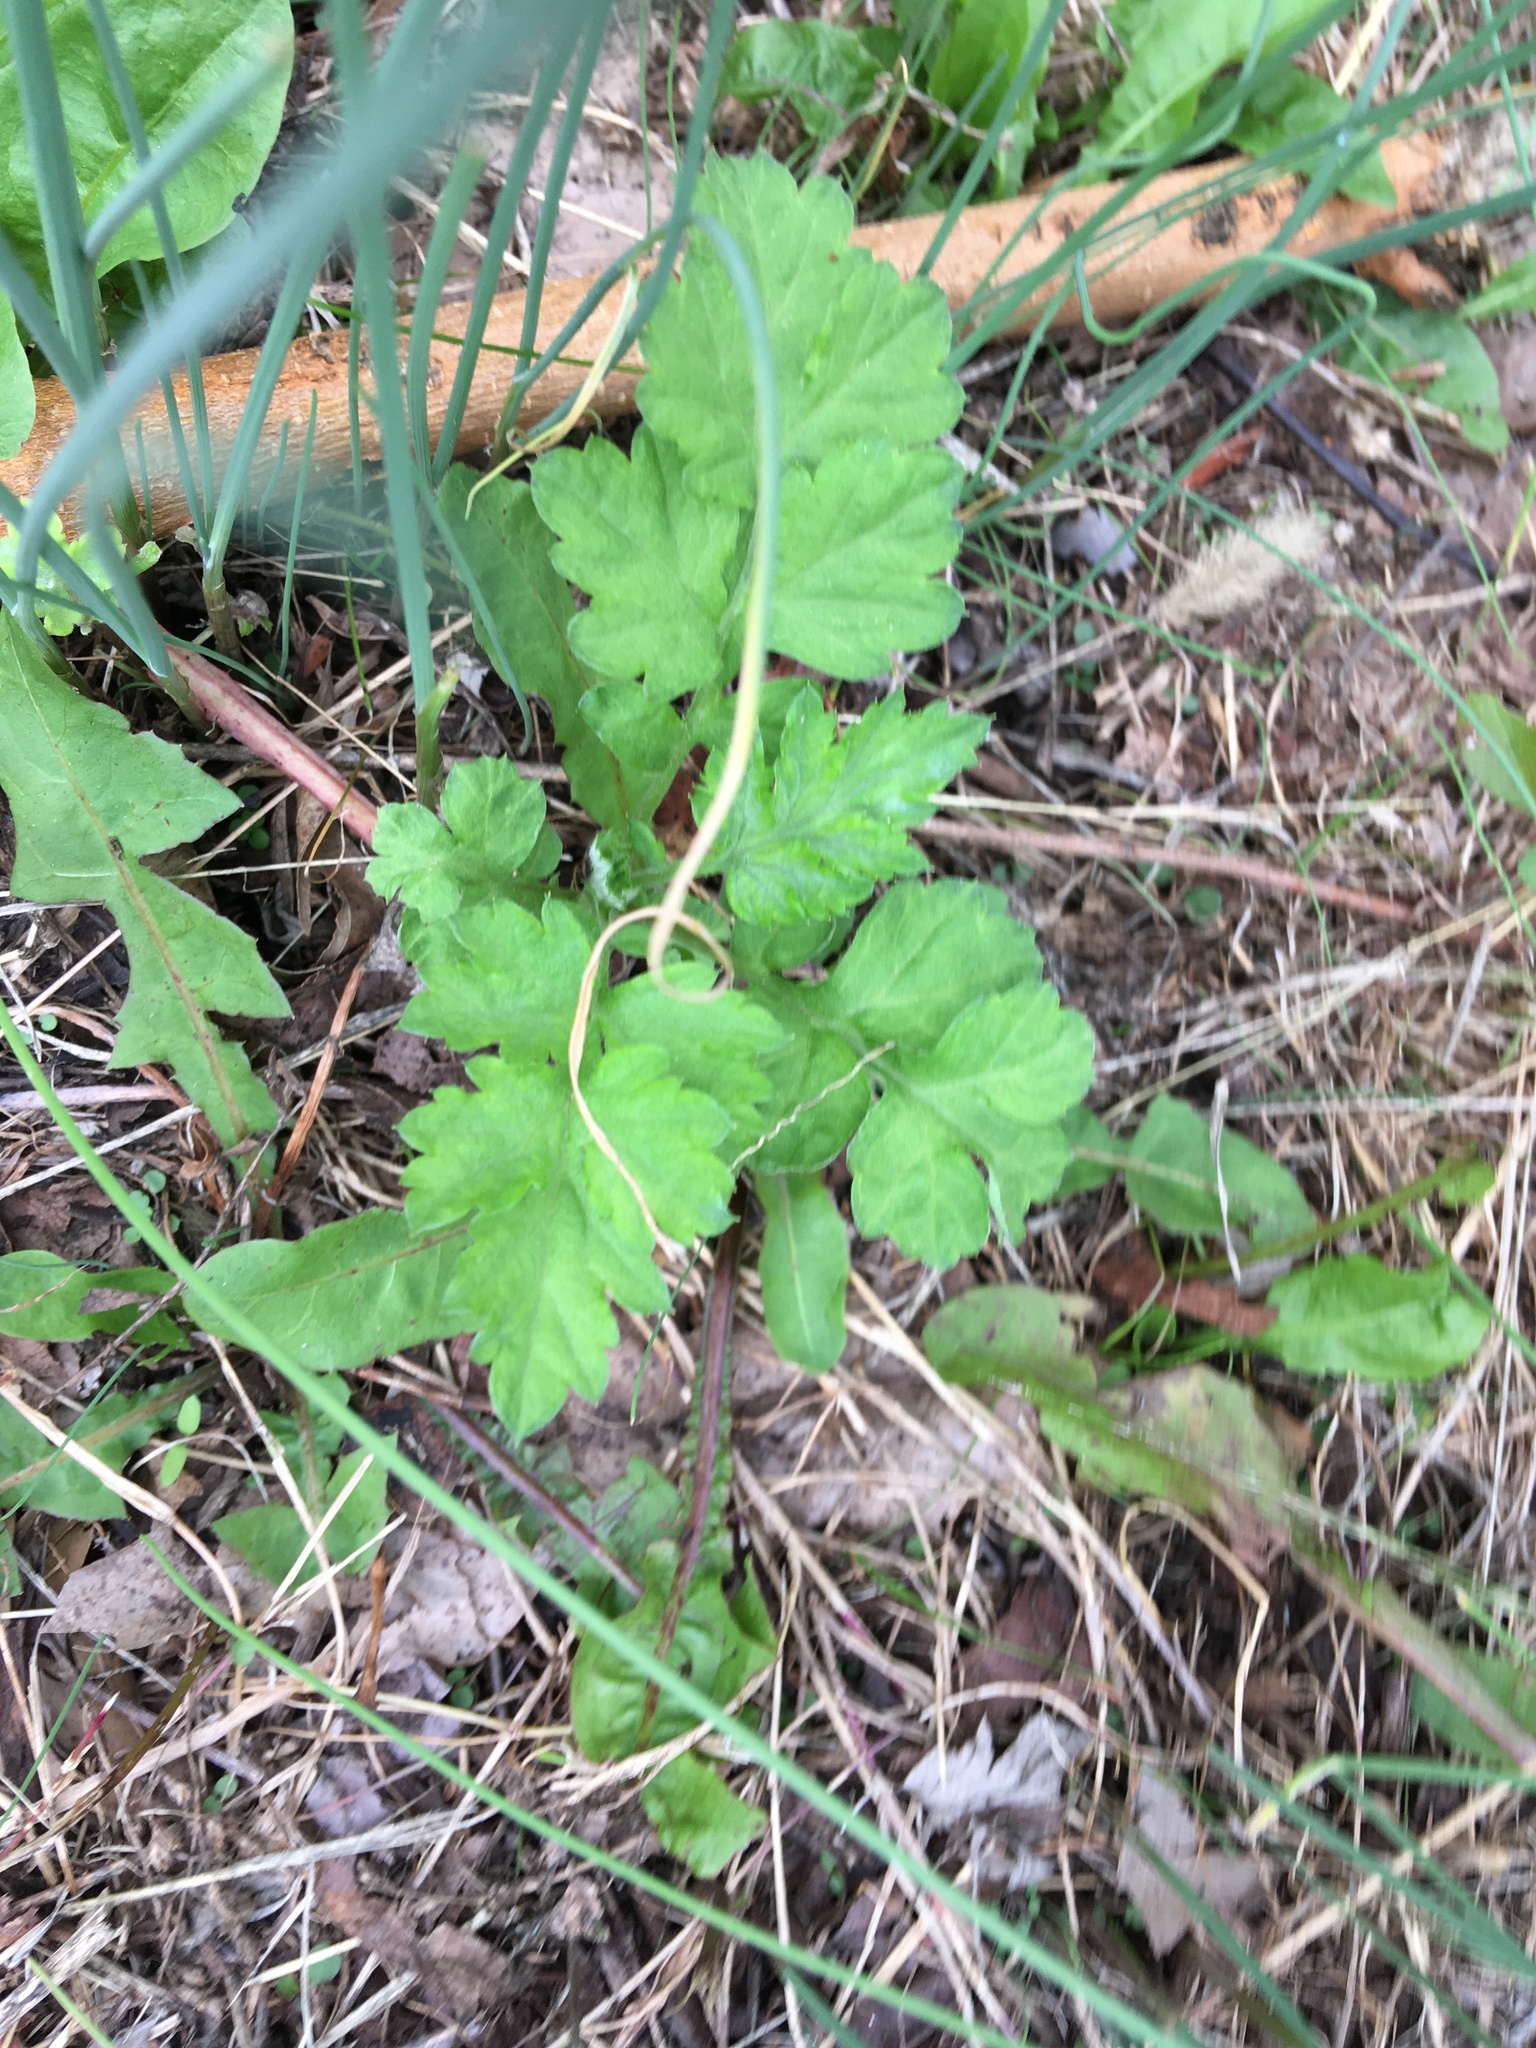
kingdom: Plantae
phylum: Tracheophyta
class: Magnoliopsida
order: Asterales
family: Asteraceae
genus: Artemisia
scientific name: Artemisia vulgaris
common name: Mugwort
